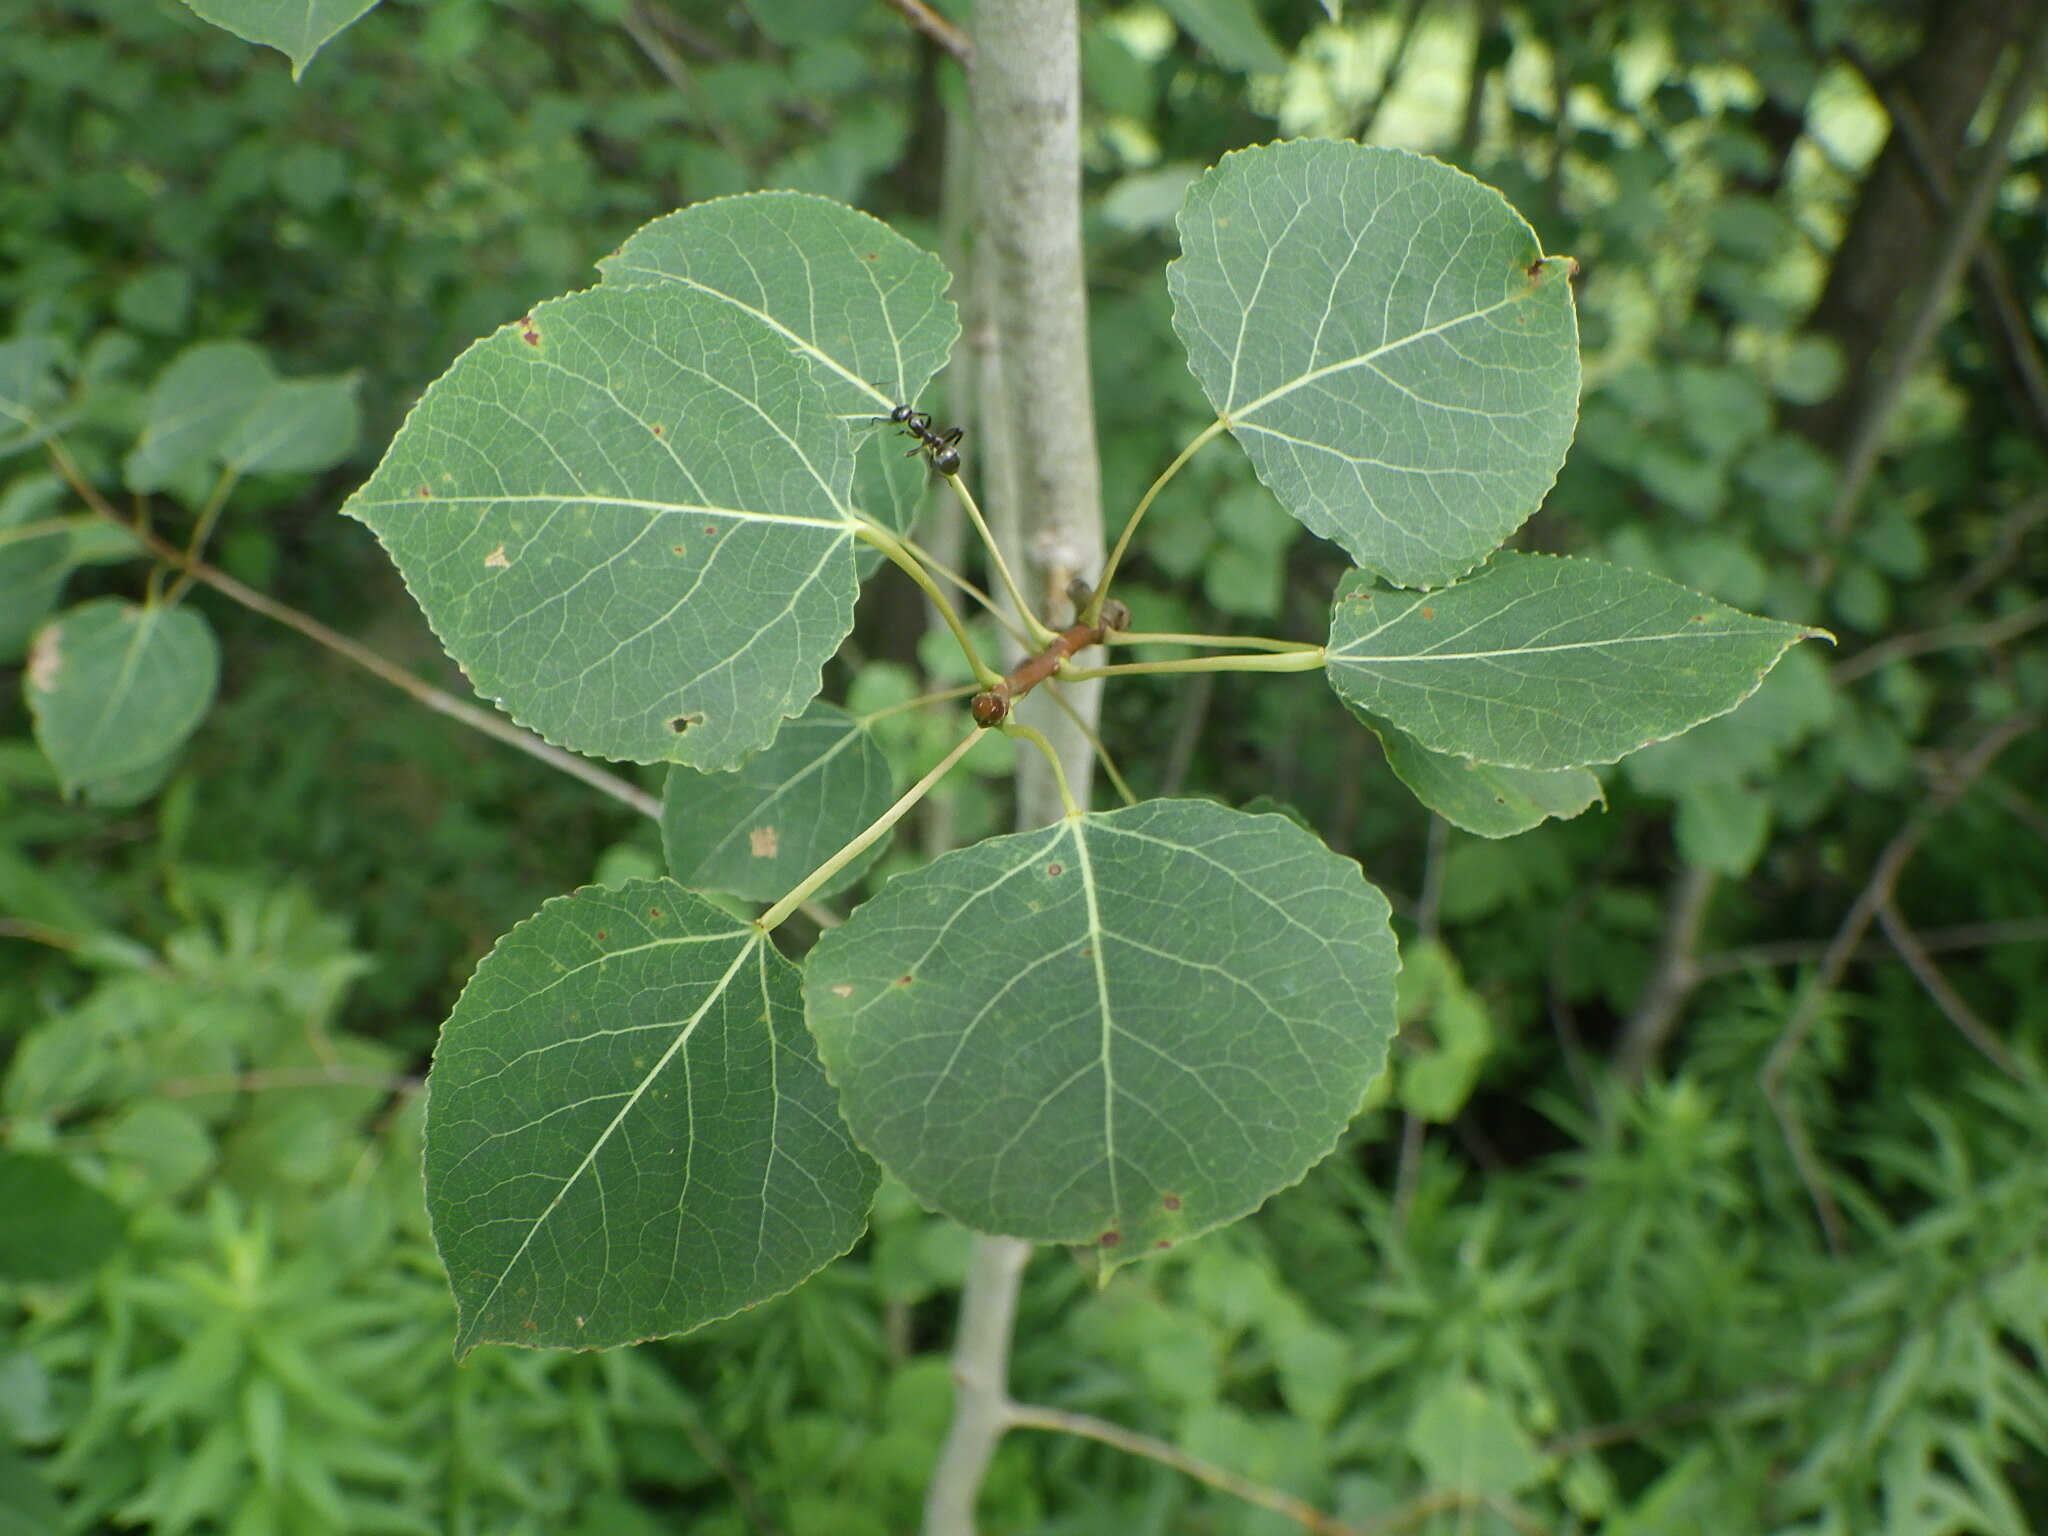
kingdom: Plantae
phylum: Tracheophyta
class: Magnoliopsida
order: Malpighiales
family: Salicaceae
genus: Populus
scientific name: Populus tremuloides
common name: Quaking aspen
